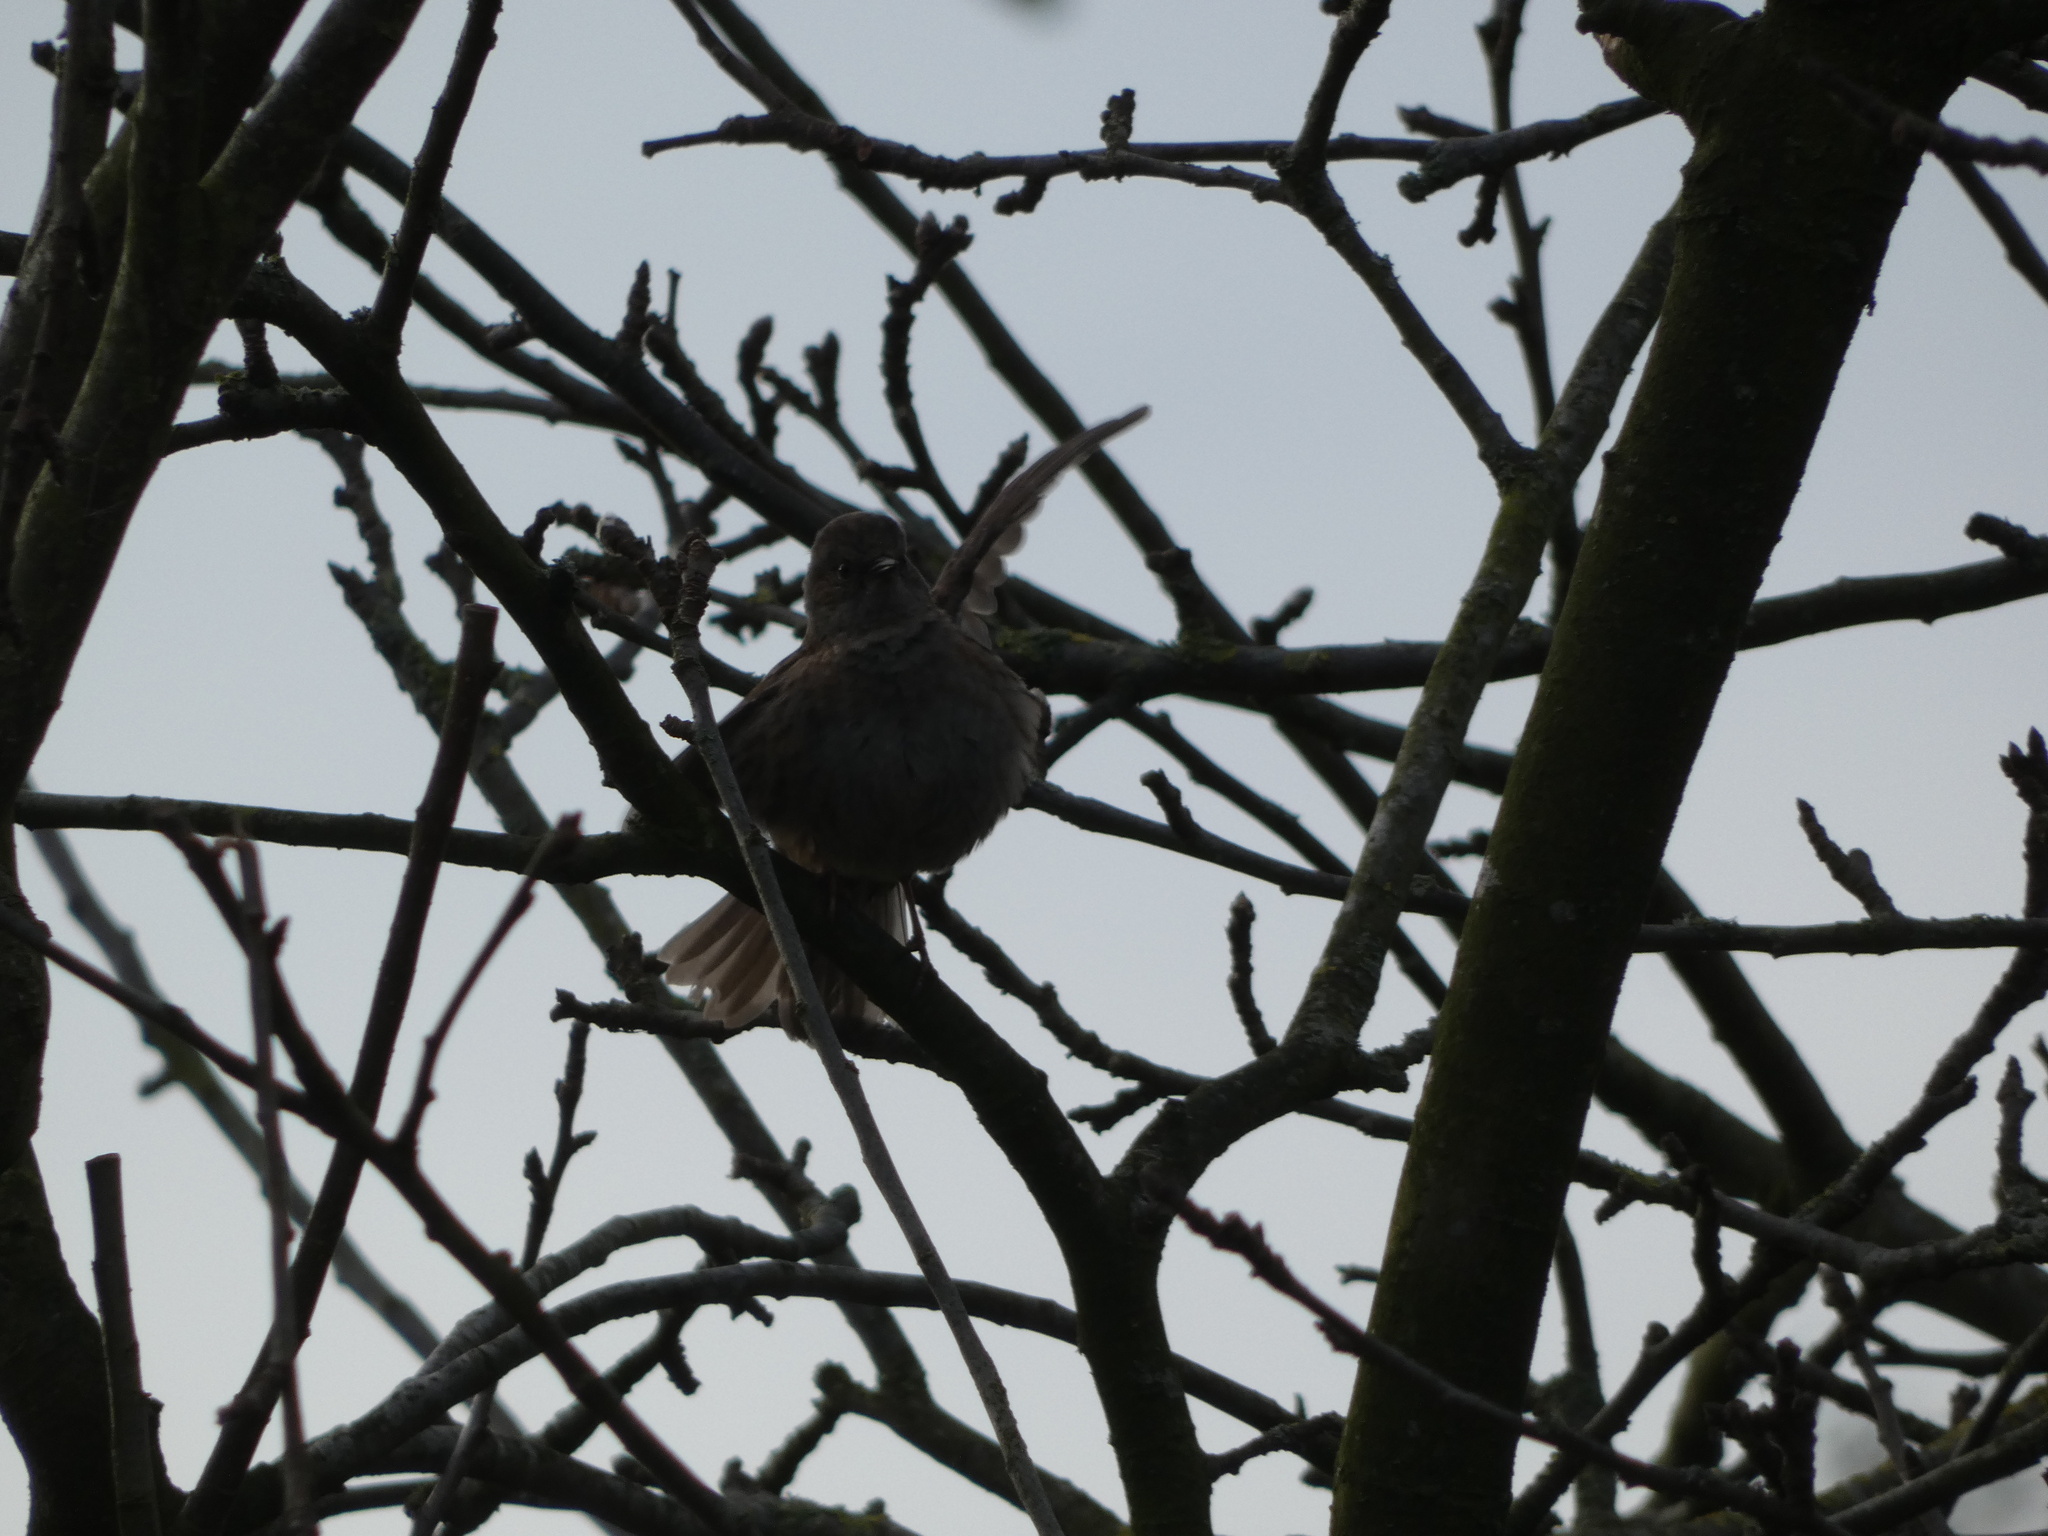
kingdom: Animalia
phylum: Chordata
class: Aves
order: Passeriformes
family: Prunellidae
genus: Prunella
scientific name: Prunella modularis
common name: Dunnock
